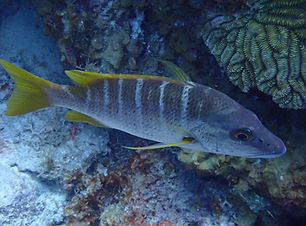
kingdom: Animalia
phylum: Chordata
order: Perciformes
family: Lutjanidae
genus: Lutjanus
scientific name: Lutjanus apodus
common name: Schoolmaster
